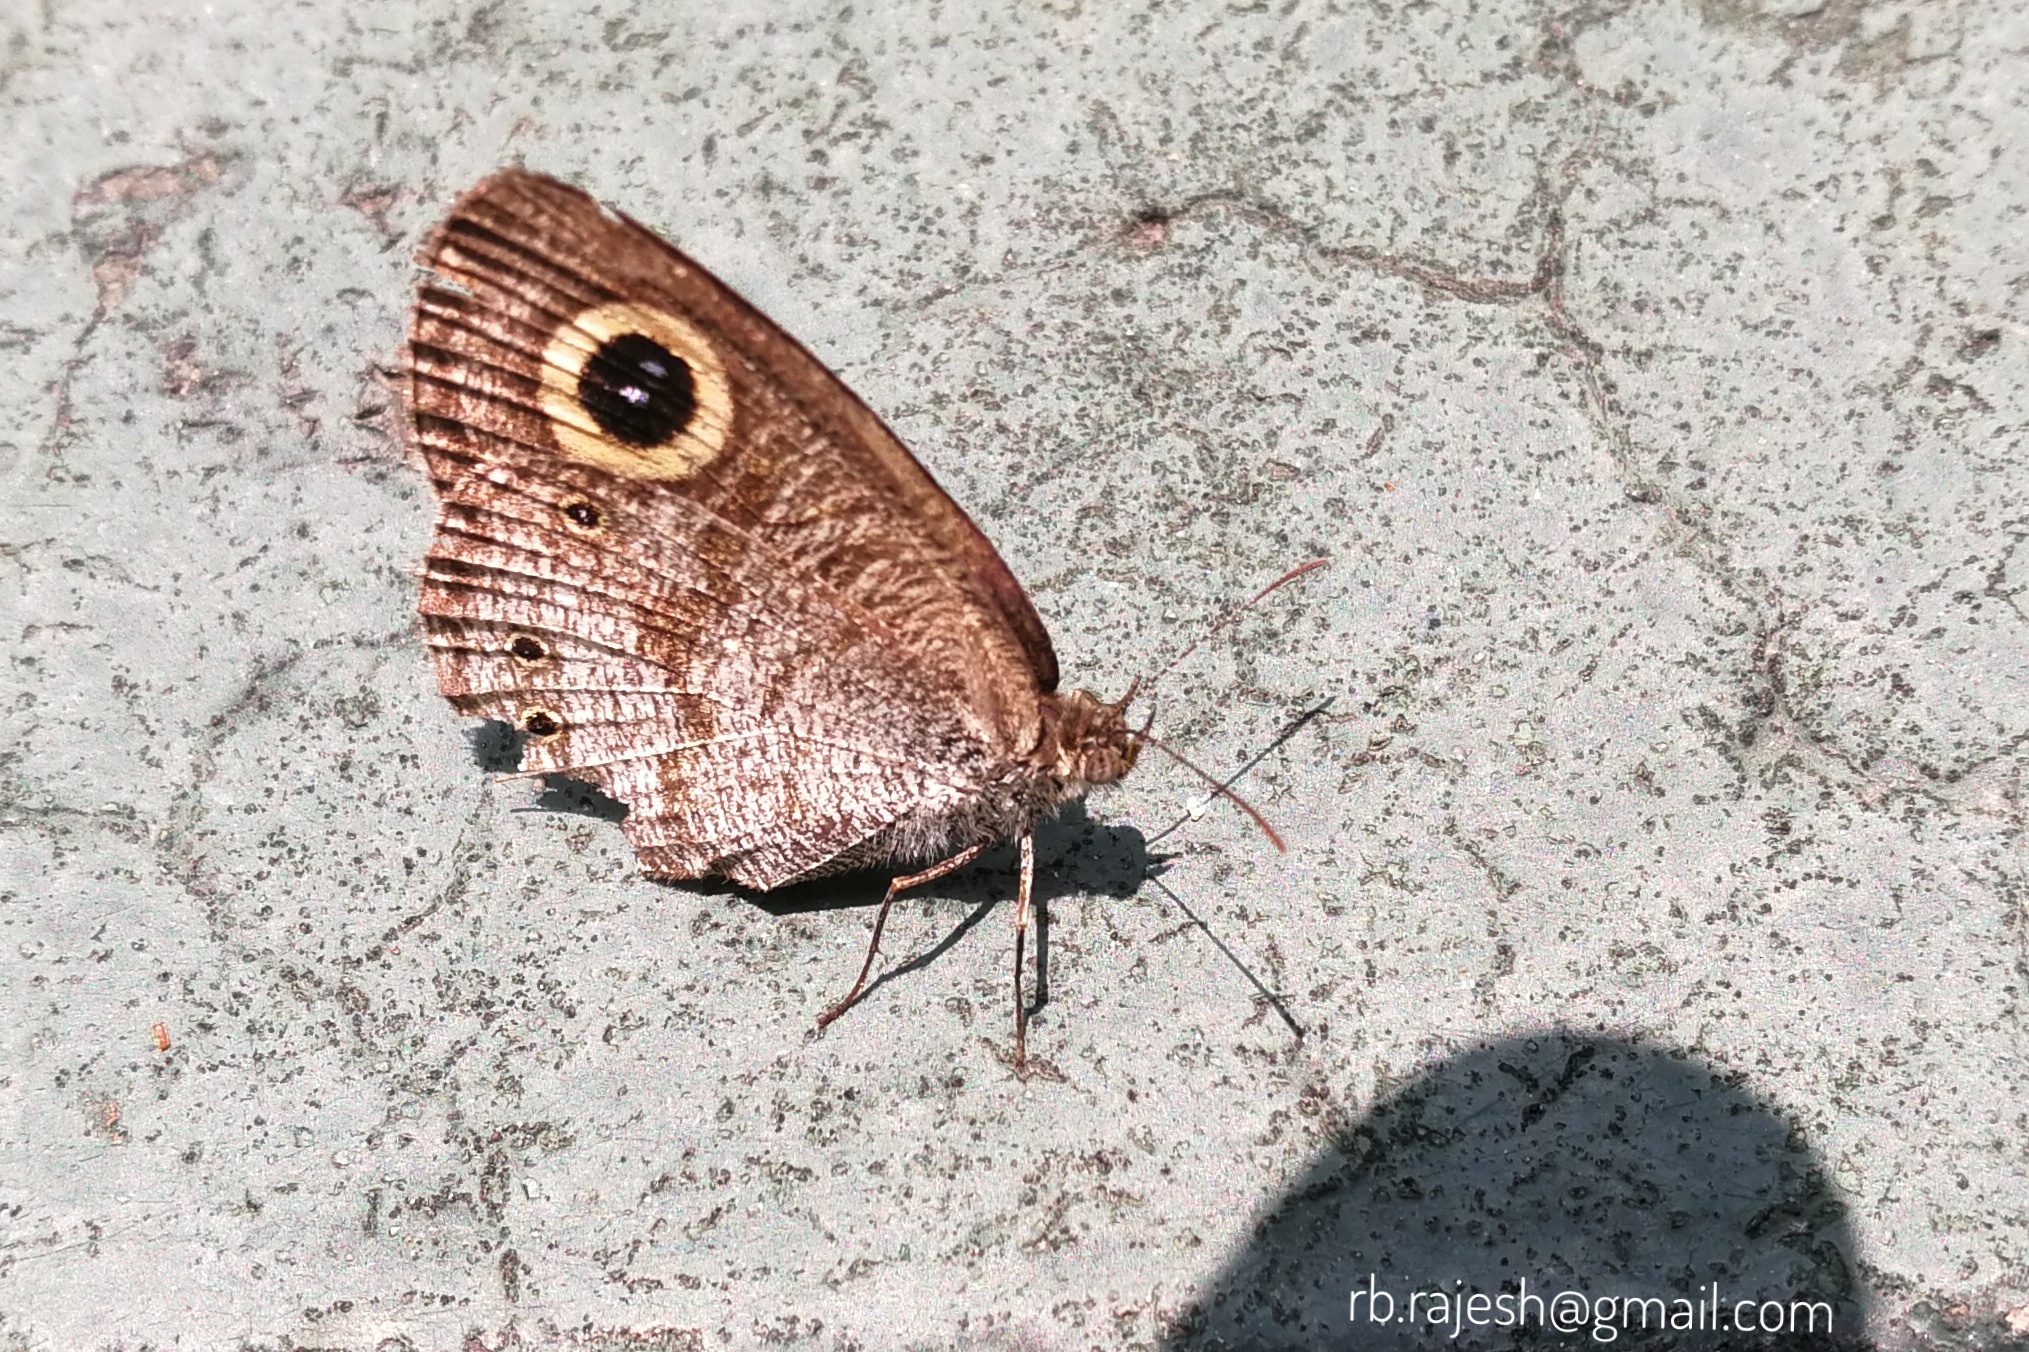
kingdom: Animalia
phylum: Arthropoda
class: Insecta
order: Lepidoptera
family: Nymphalidae
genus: Ypthima
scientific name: Ypthima huebneri
